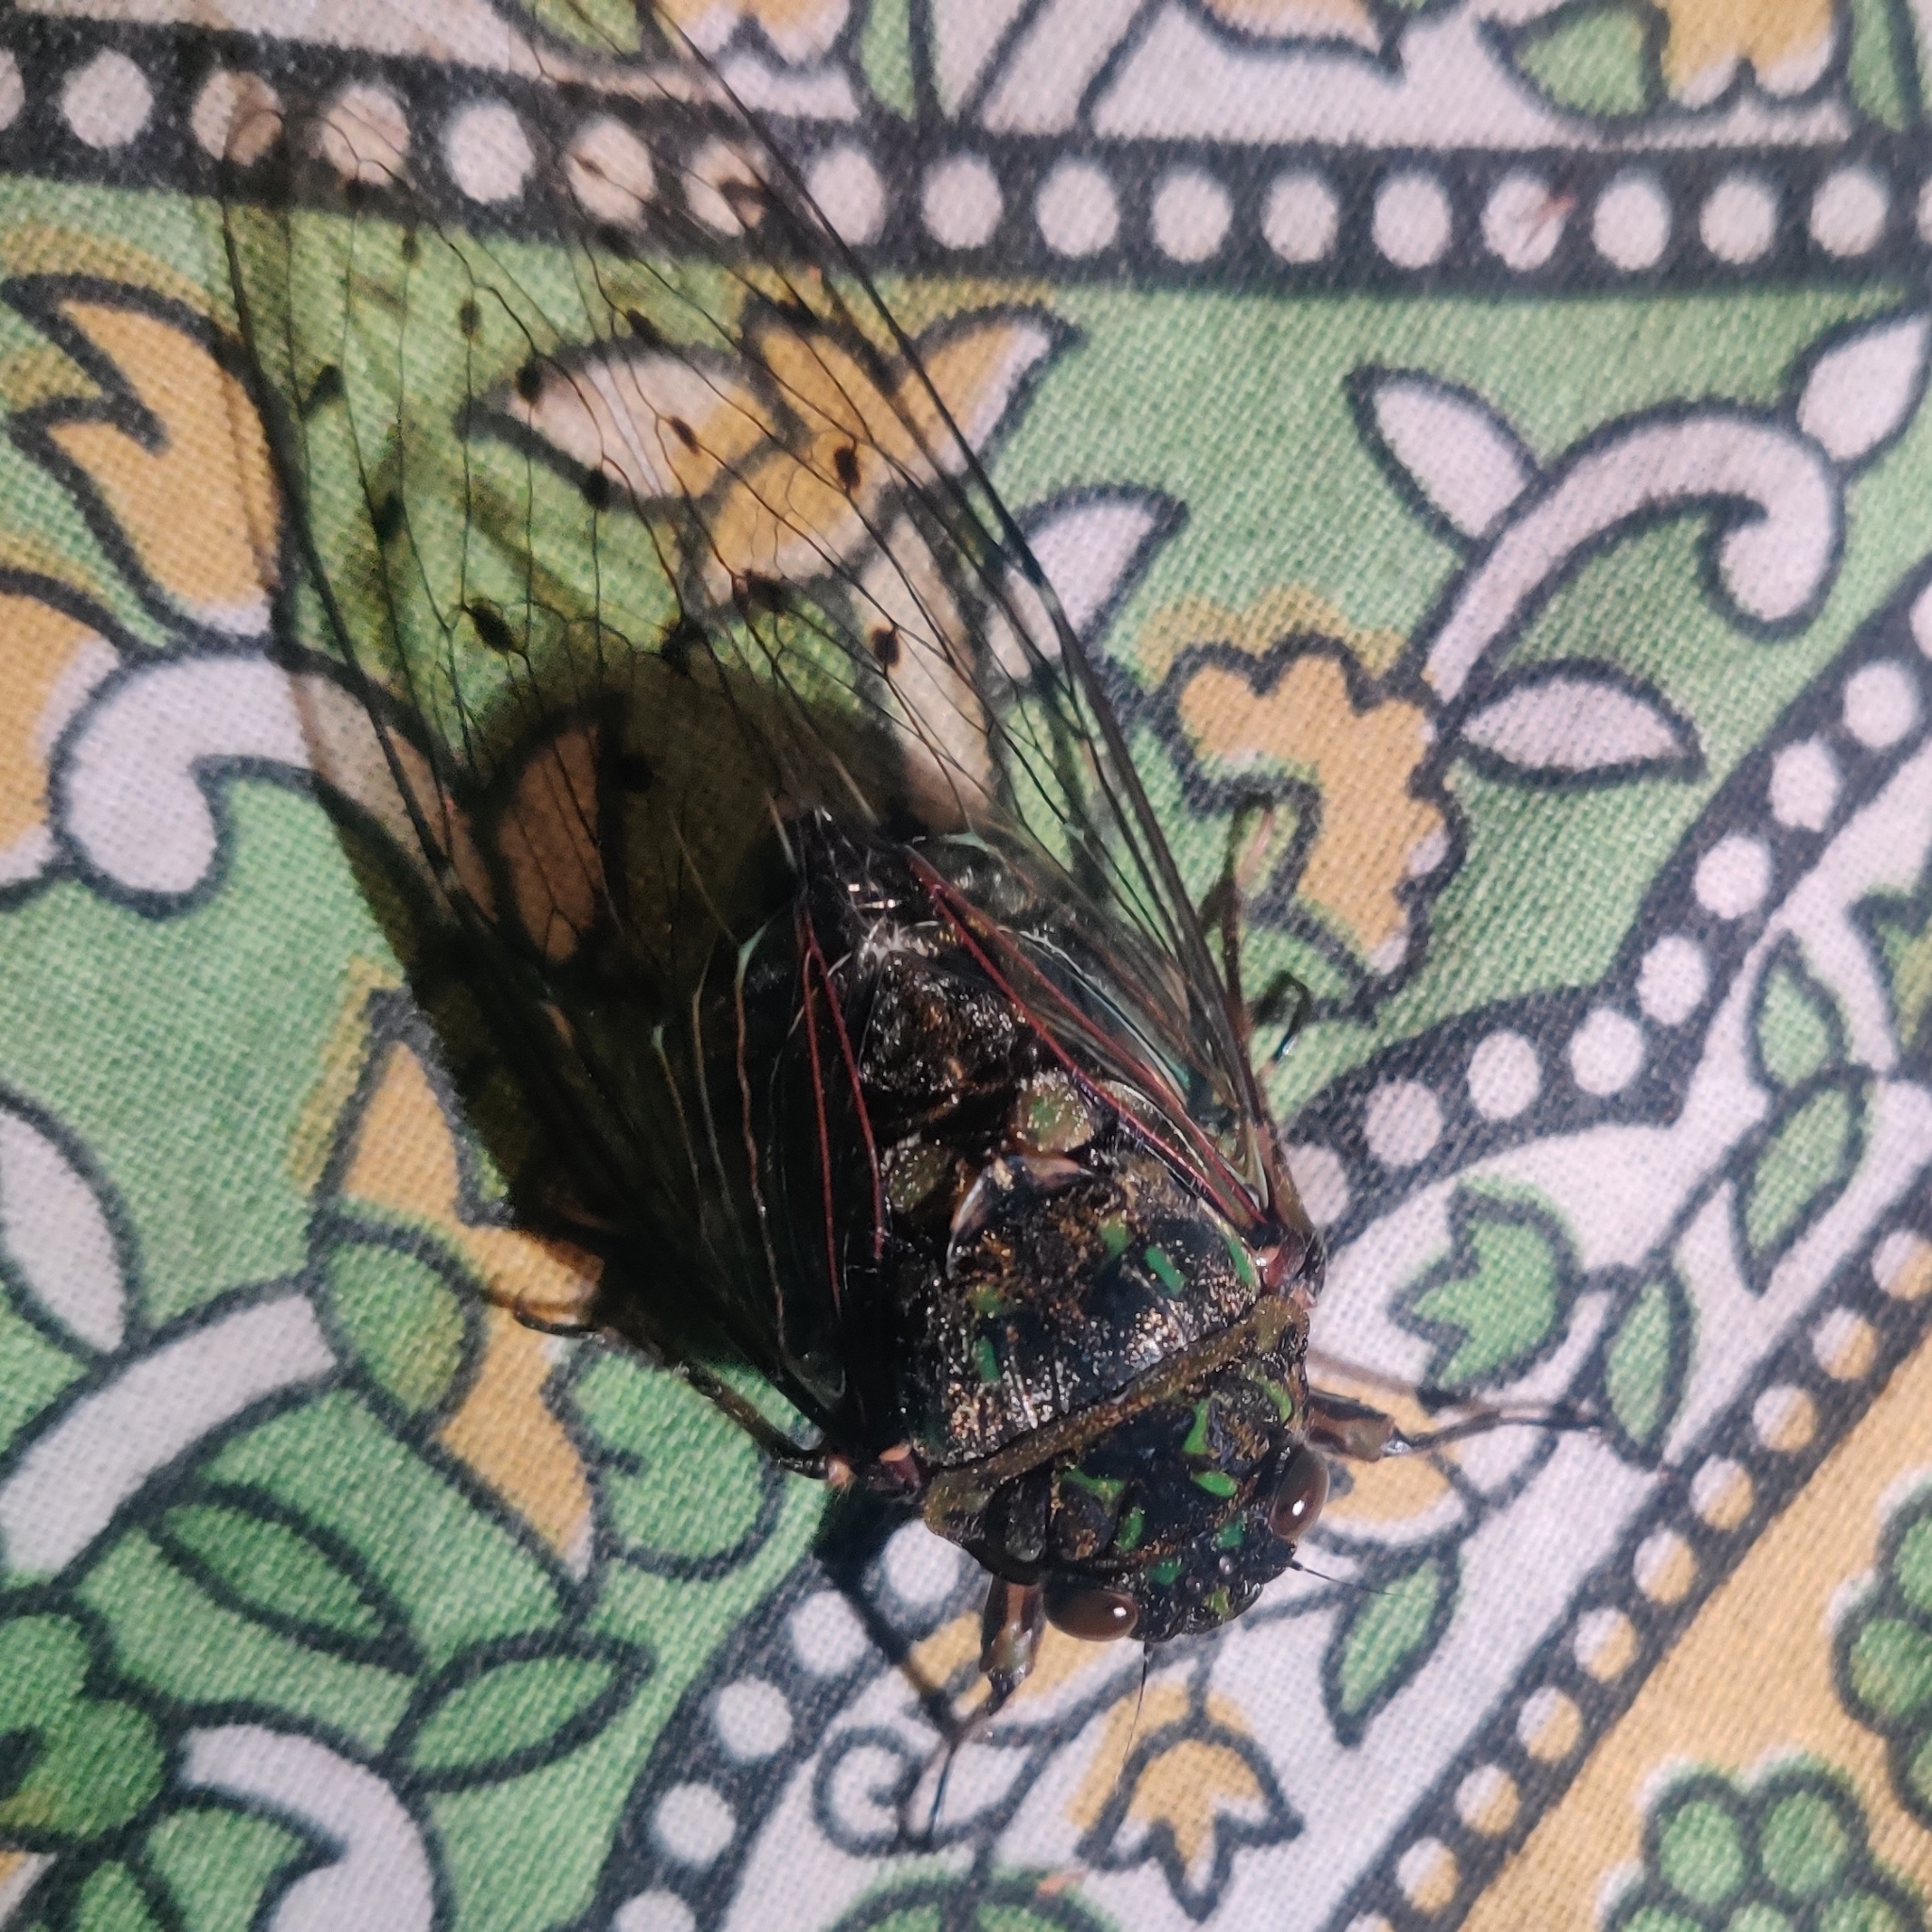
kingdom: Animalia
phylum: Arthropoda
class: Insecta
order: Hemiptera
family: Cicadidae
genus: Hyalessa
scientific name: Hyalessa obnubila
